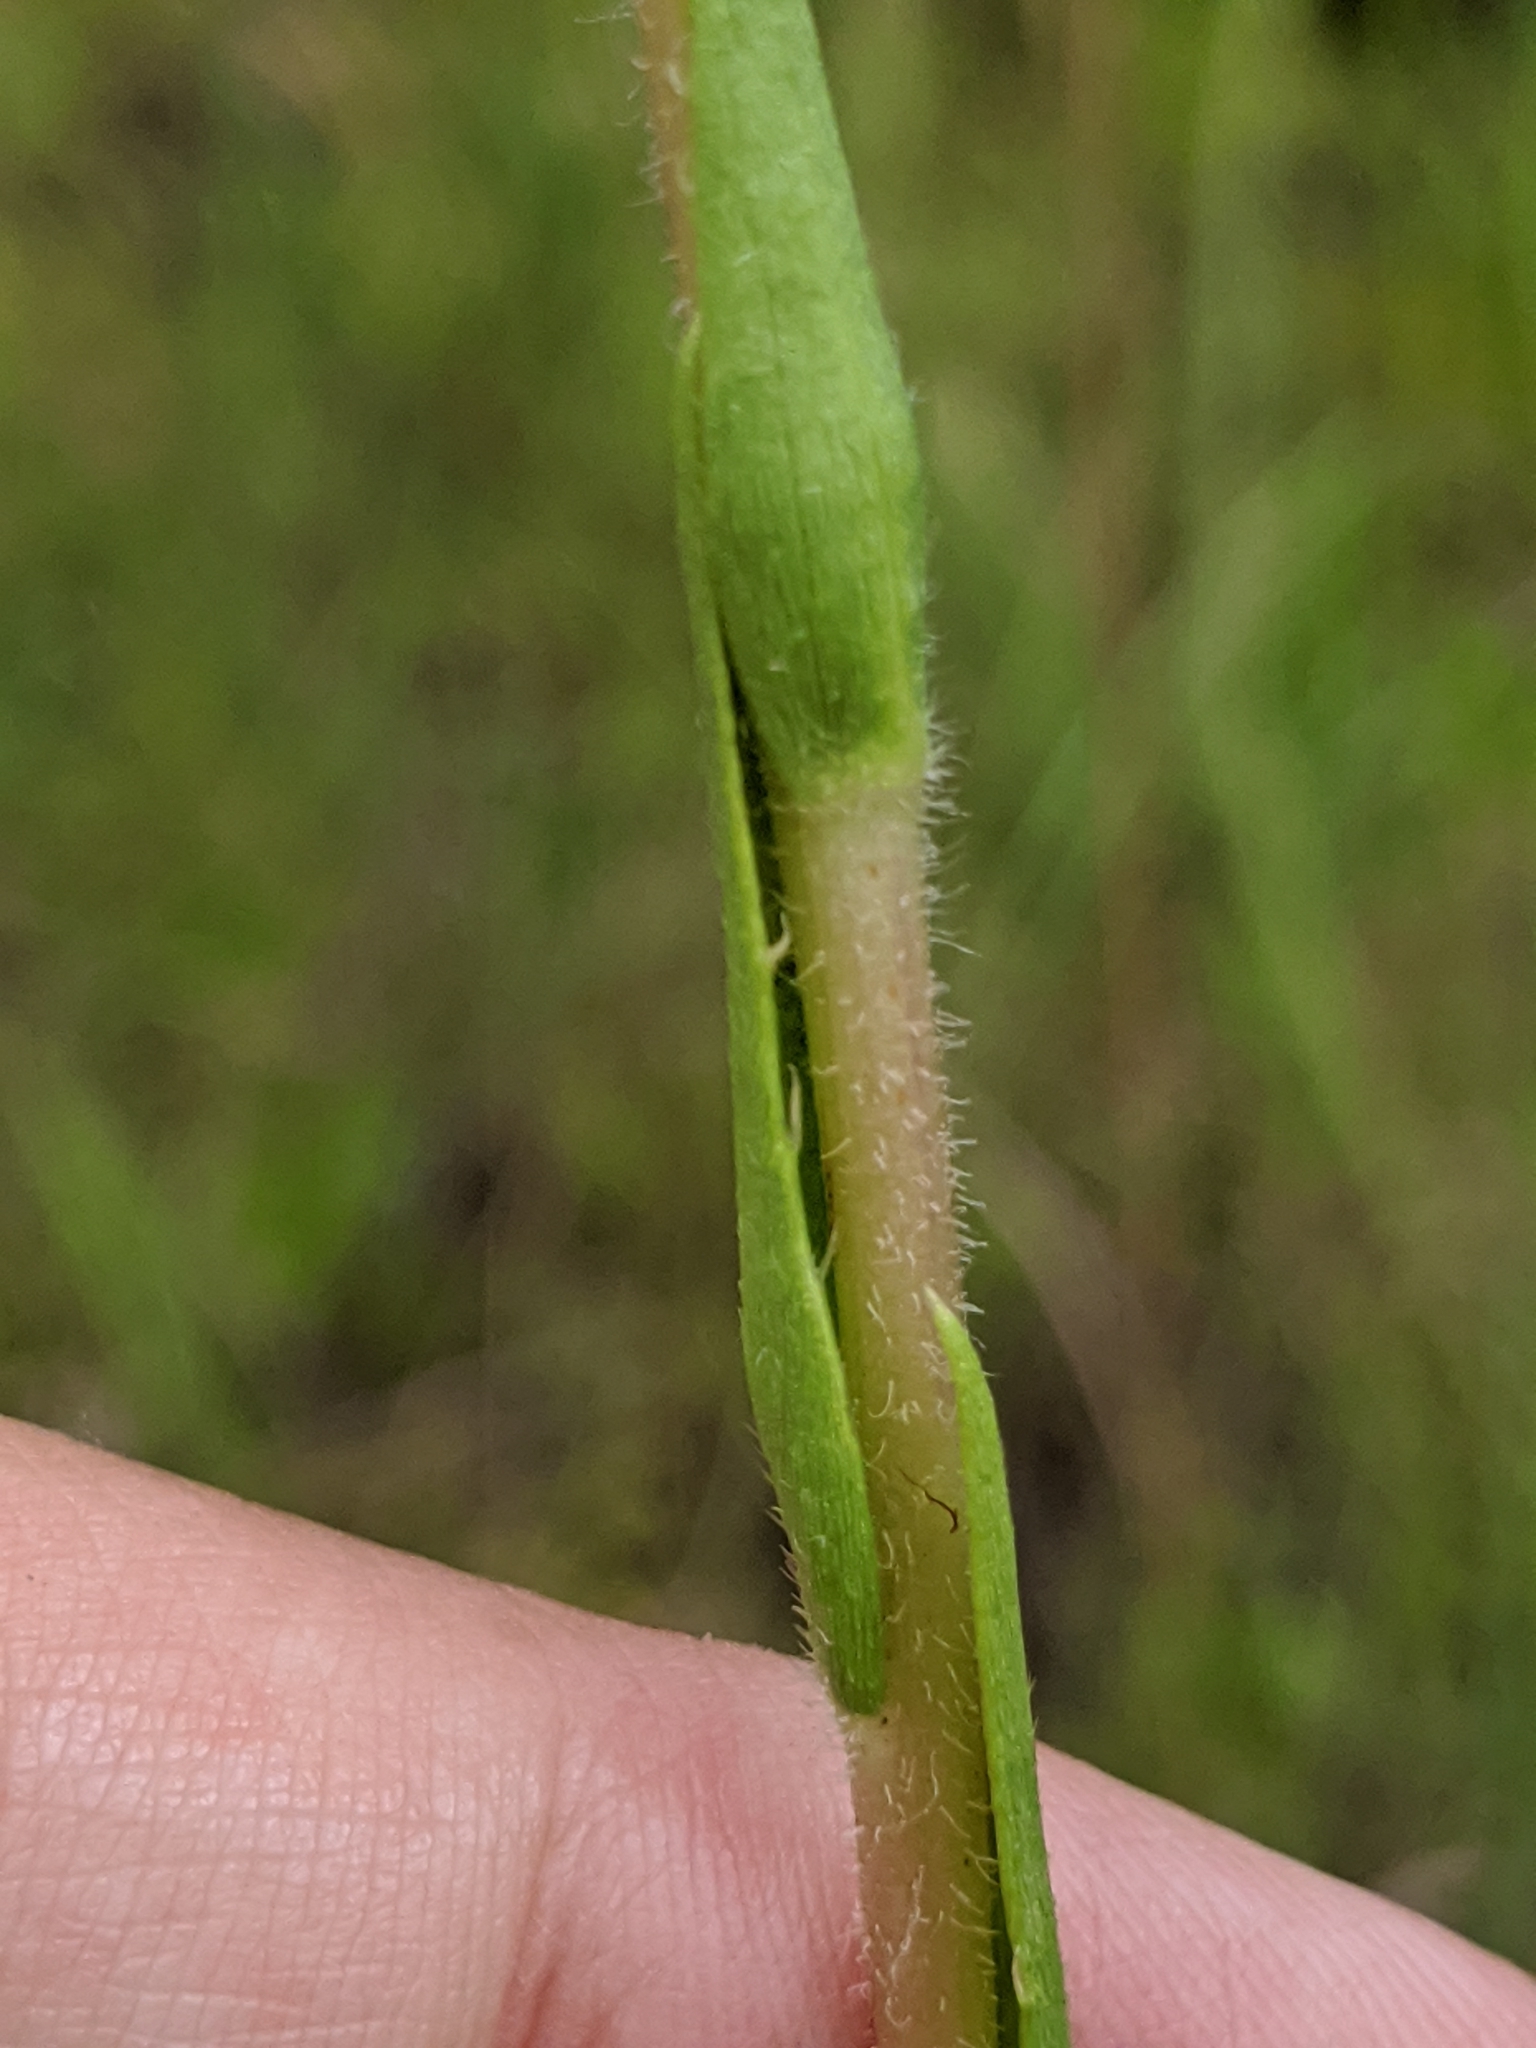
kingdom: Plantae
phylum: Tracheophyta
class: Magnoliopsida
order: Asterales
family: Asteraceae
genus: Eurybia
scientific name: Eurybia eryngiifolia
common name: Thistle-leaf aster
